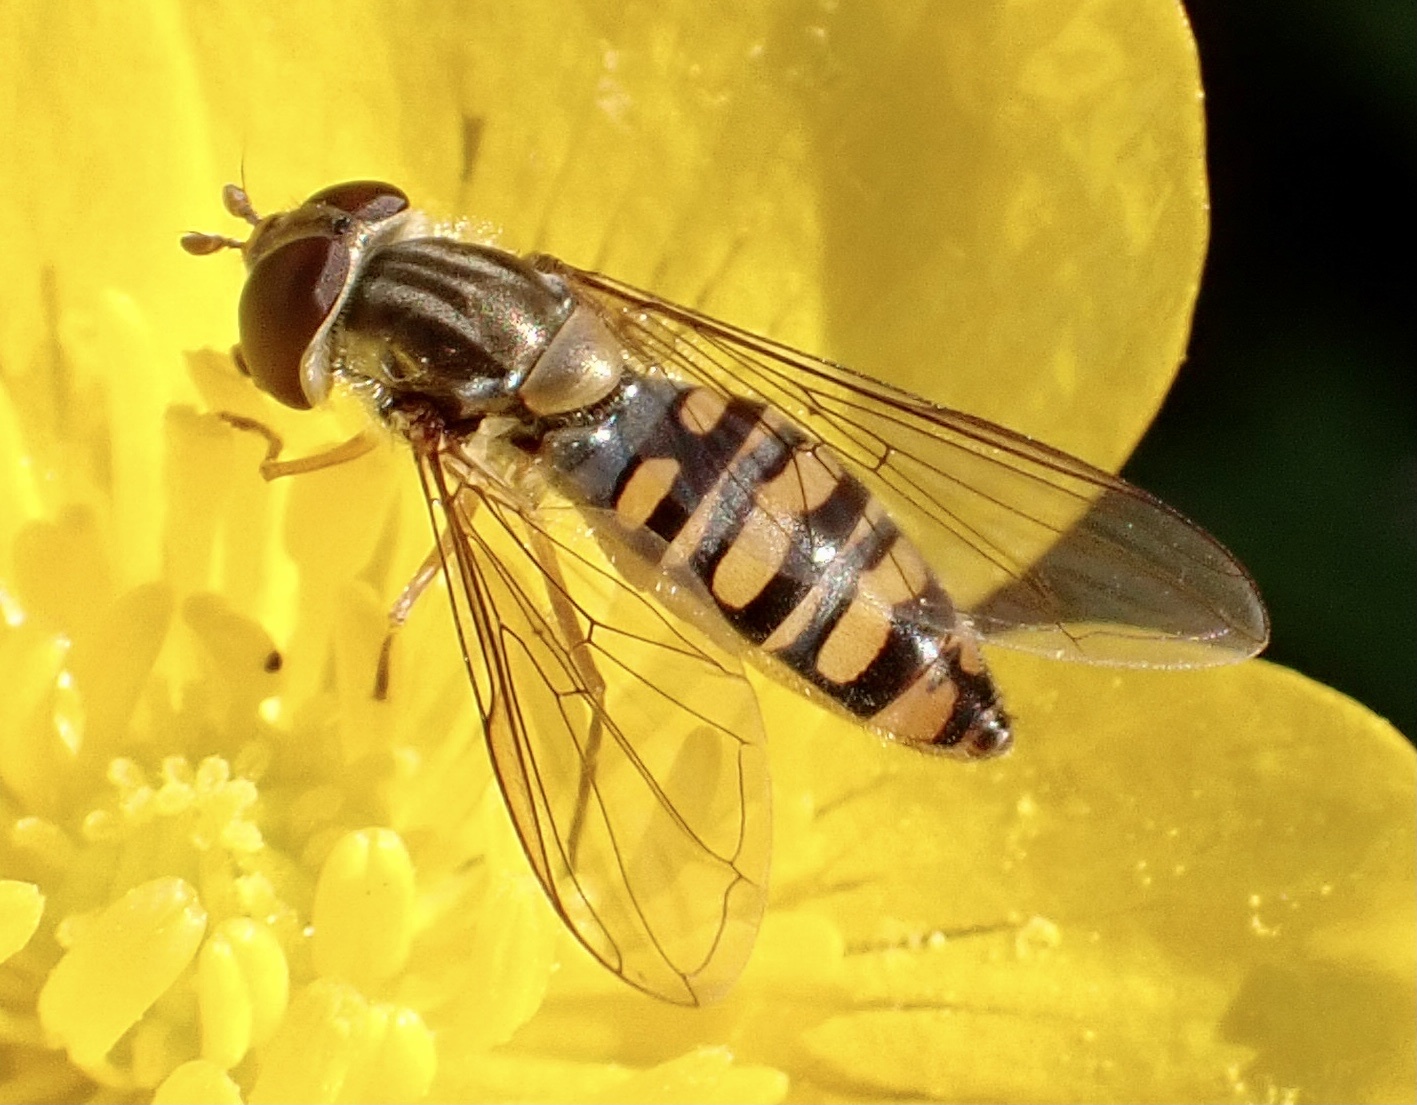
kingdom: Animalia
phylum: Arthropoda
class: Insecta
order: Diptera
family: Syrphidae
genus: Episyrphus
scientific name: Episyrphus balteatus
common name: Marmalade hoverfly
